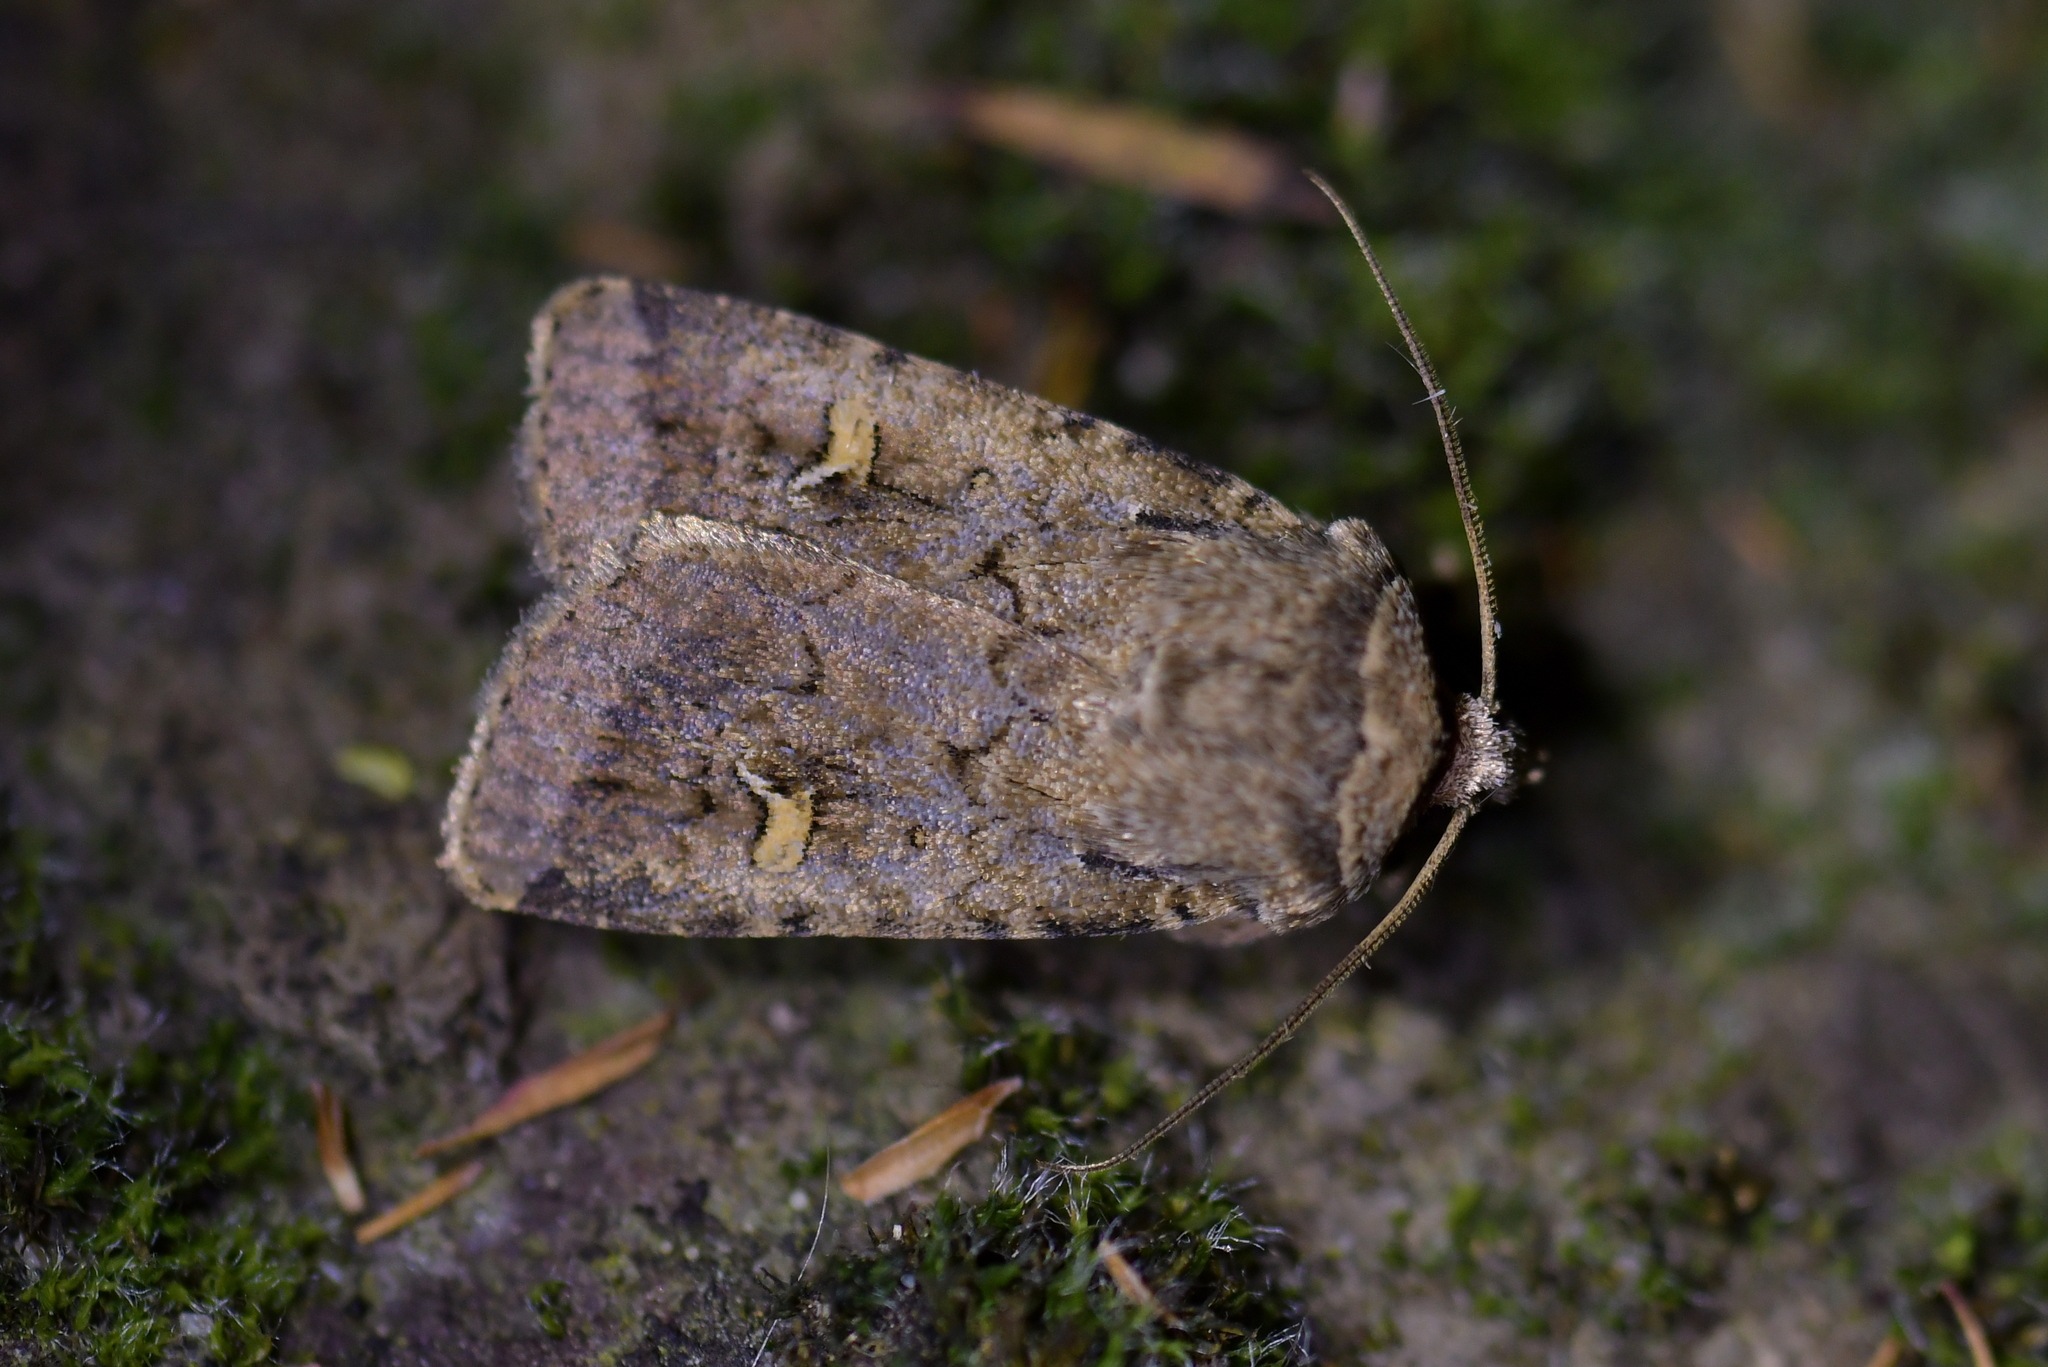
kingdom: Animalia
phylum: Arthropoda
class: Insecta
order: Lepidoptera
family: Noctuidae
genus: Proteuxoa
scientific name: Proteuxoa tetronycha
